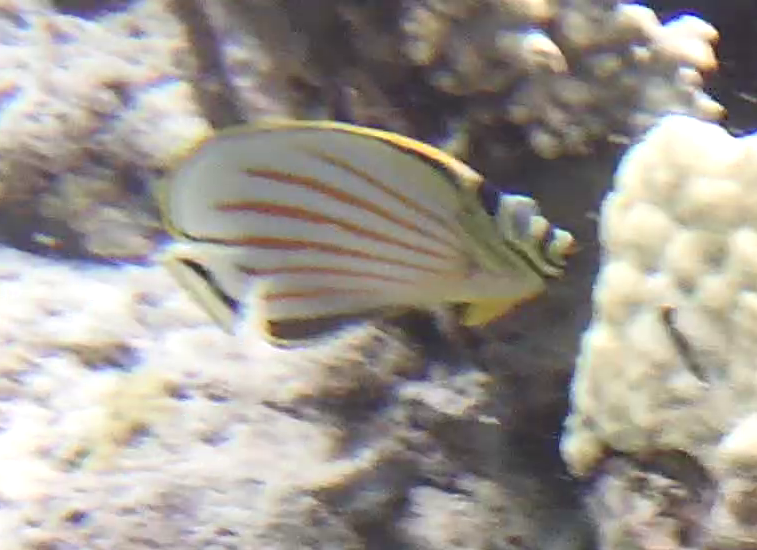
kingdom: Animalia
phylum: Chordata
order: Perciformes
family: Chaetodontidae
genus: Chaetodon
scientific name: Chaetodon ornatissimus
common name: Ornate butterflyfish
